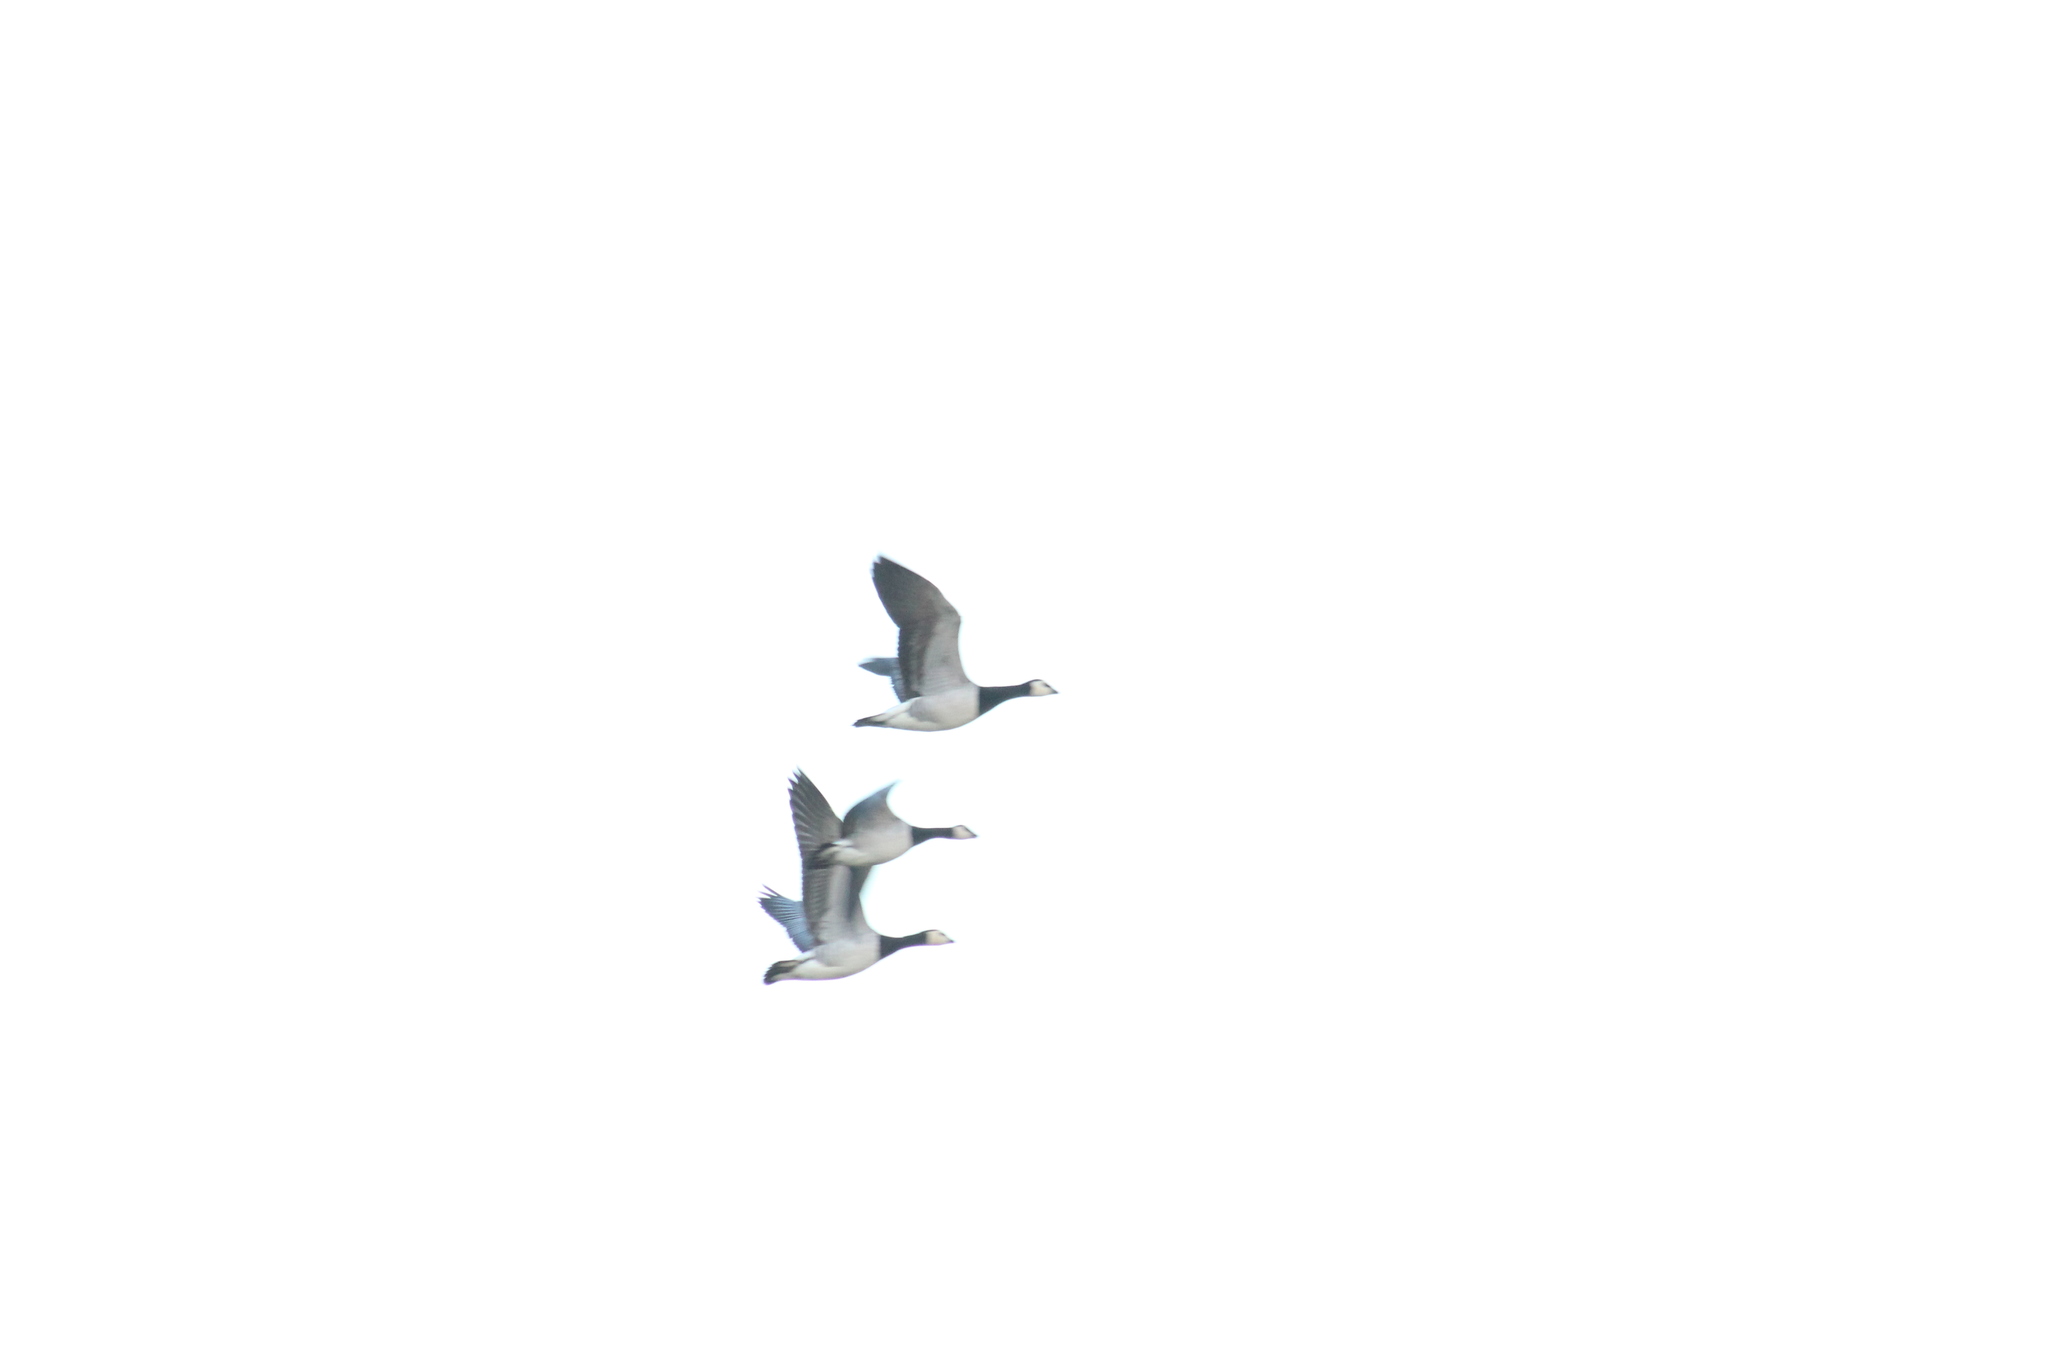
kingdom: Animalia
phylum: Chordata
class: Aves
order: Anseriformes
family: Anatidae
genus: Branta
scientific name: Branta leucopsis
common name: Barnacle goose
